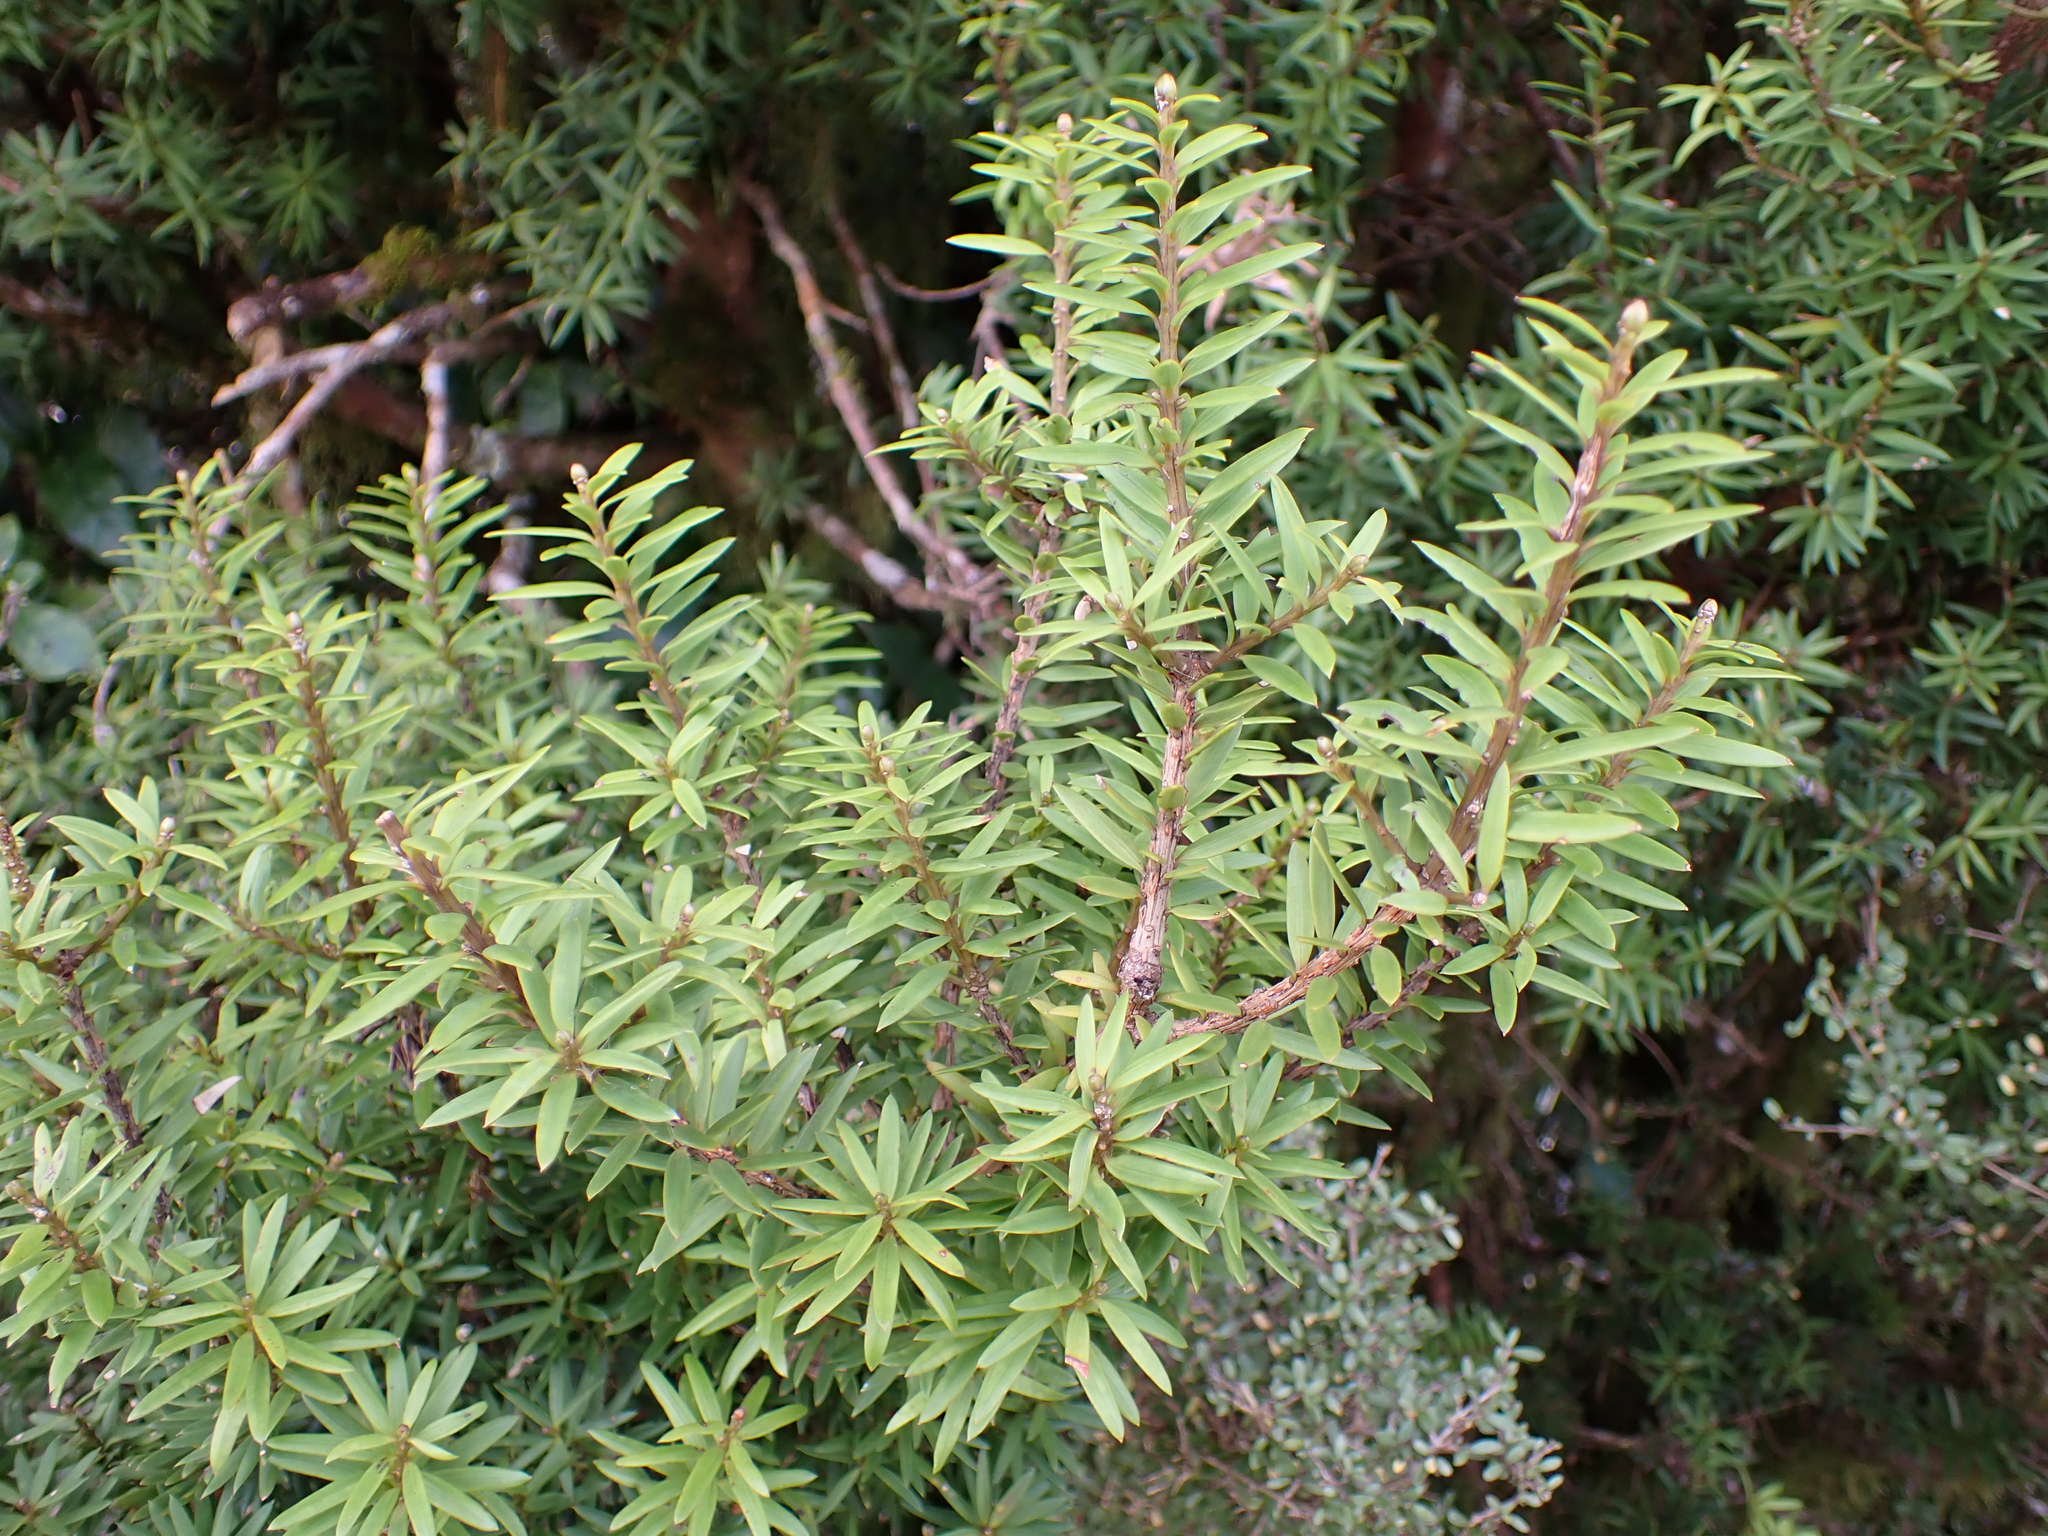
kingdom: Plantae
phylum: Tracheophyta
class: Pinopsida
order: Pinales
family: Podocarpaceae
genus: Podocarpus
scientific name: Podocarpus laetus
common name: Hall's totara
